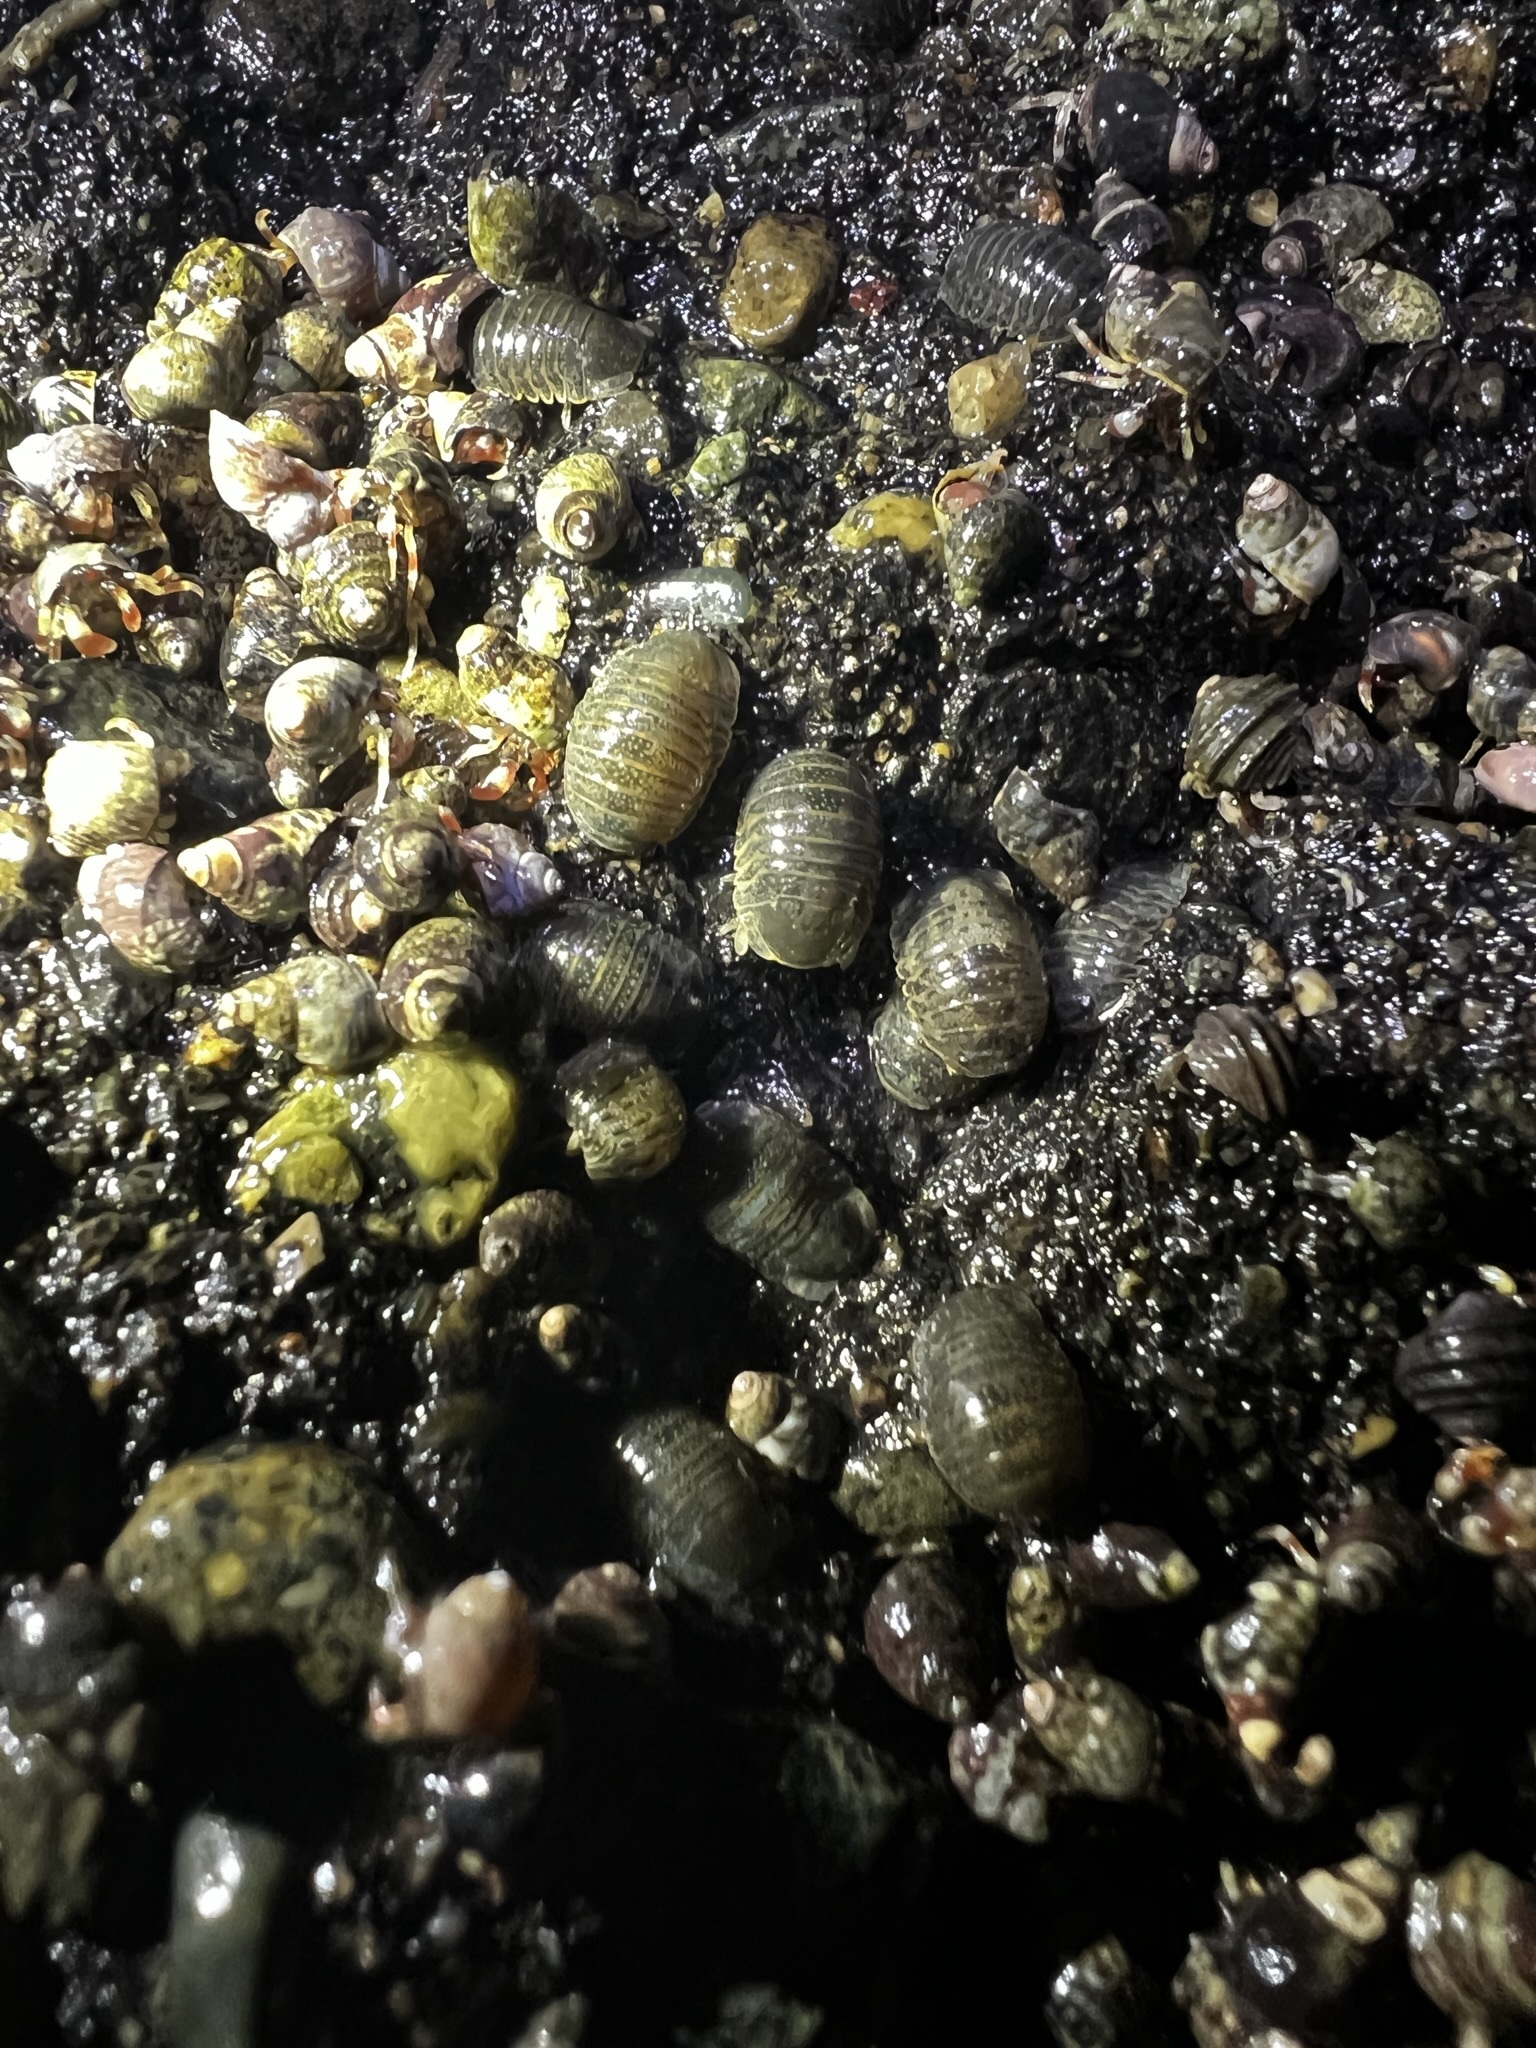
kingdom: Animalia
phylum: Arthropoda
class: Malacostraca
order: Isopoda
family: Sphaeromatidae
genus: Gnorimosphaeroma
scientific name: Gnorimosphaeroma oregonense
